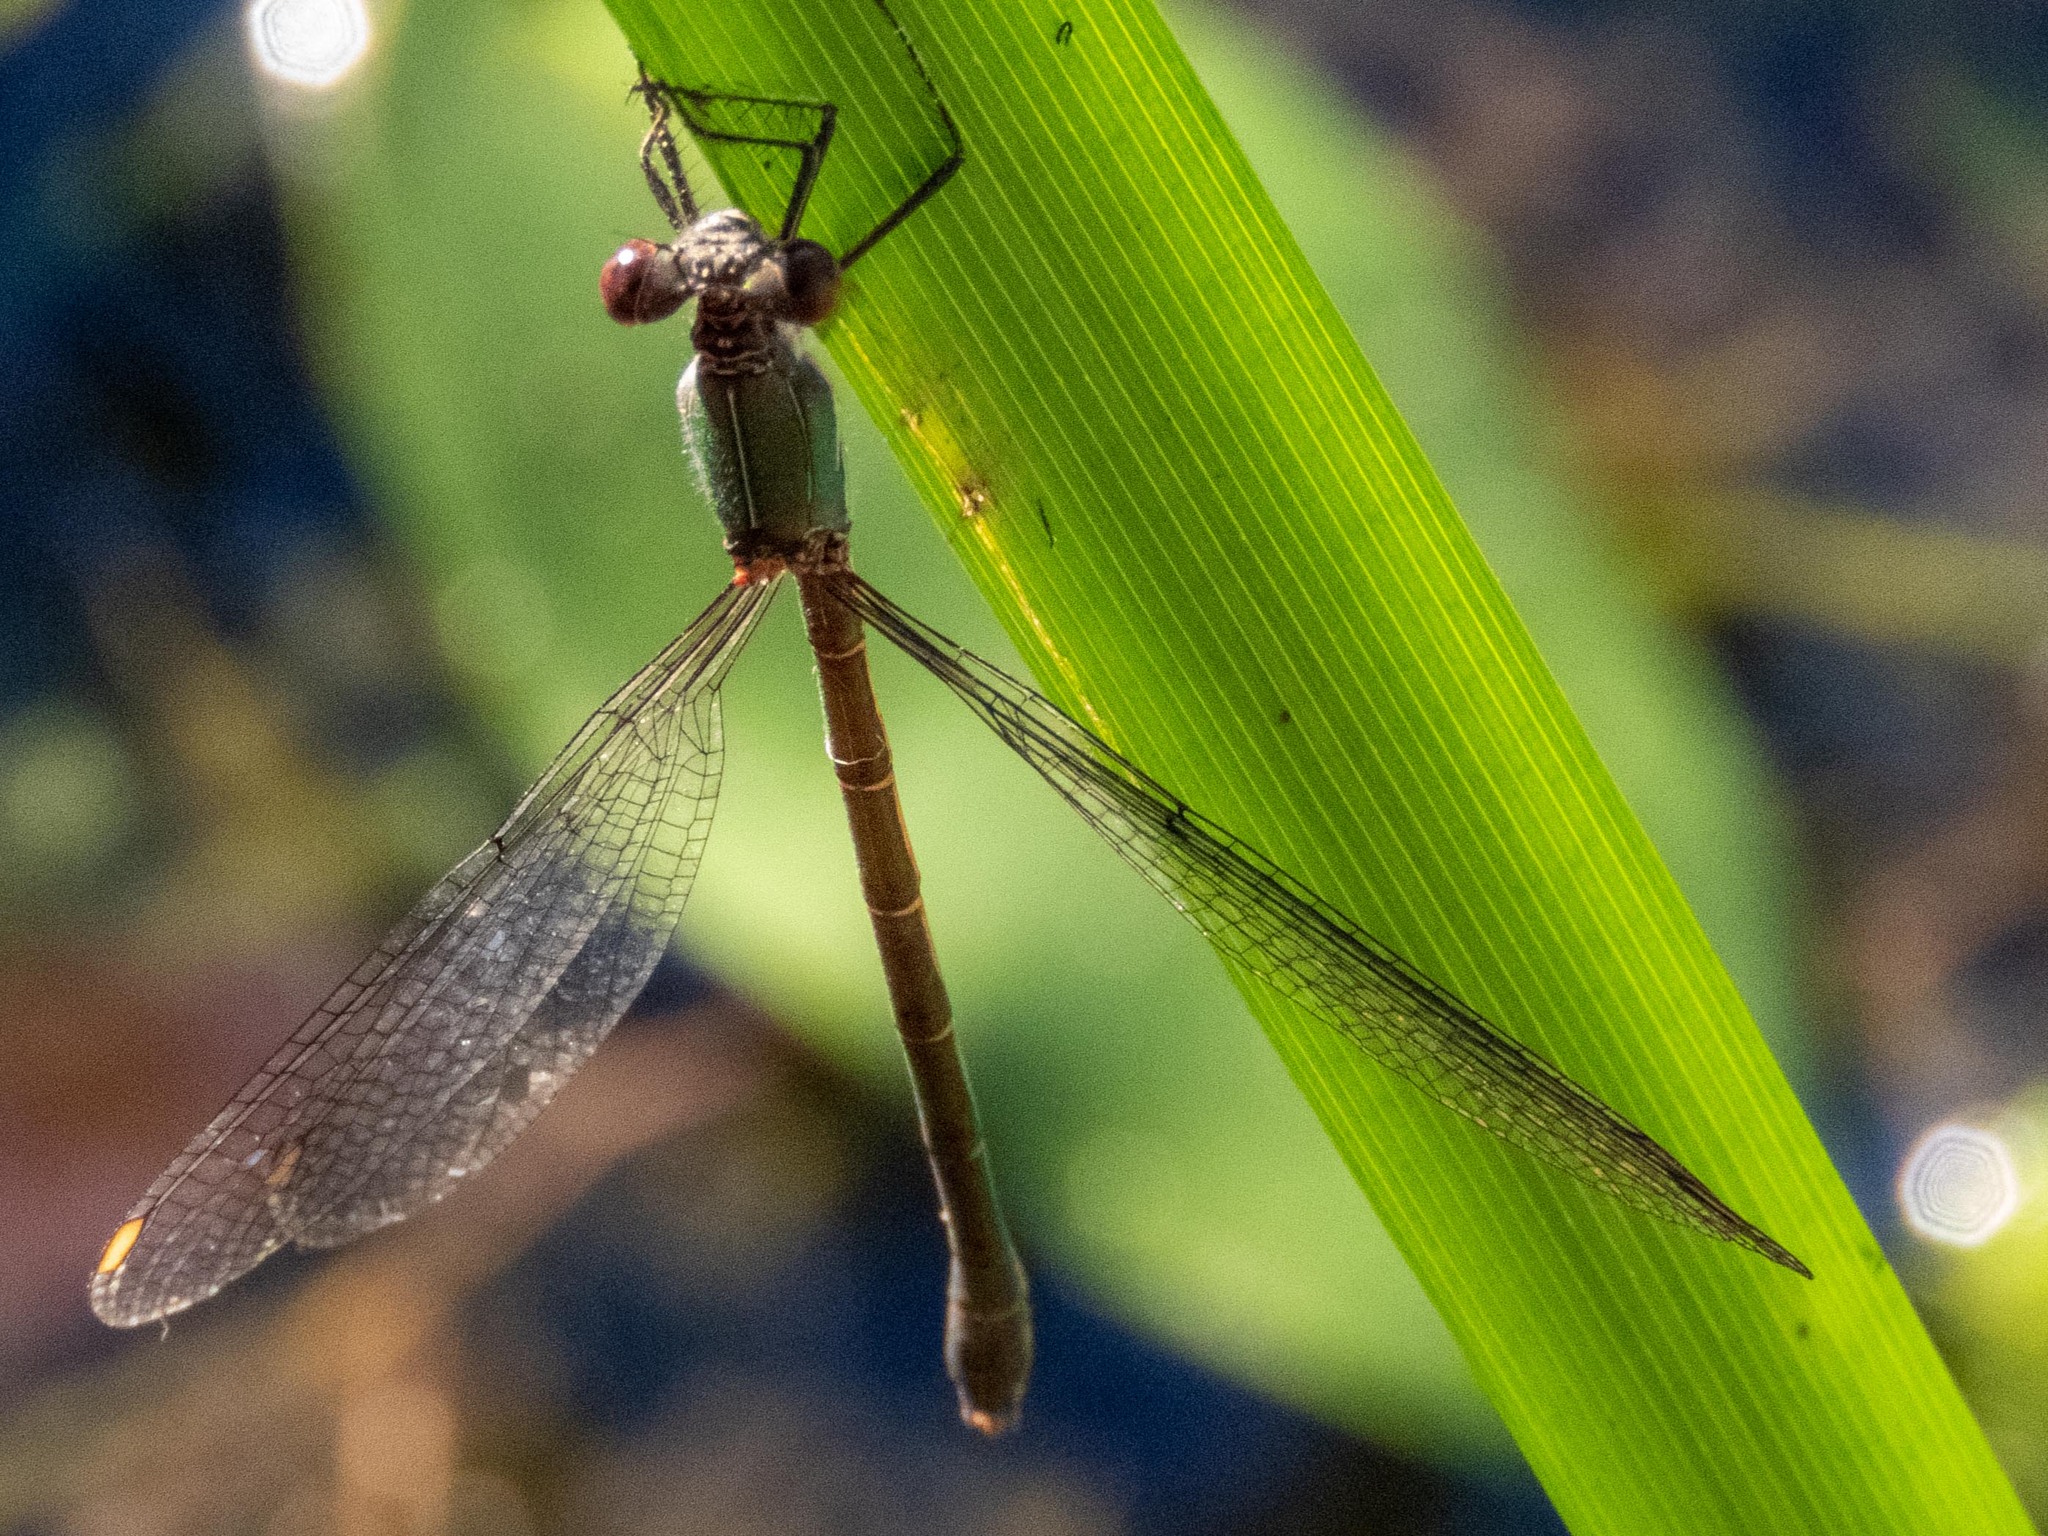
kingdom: Animalia
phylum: Arthropoda
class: Insecta
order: Odonata
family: Lestidae
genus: Chalcolestes
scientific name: Chalcolestes viridis
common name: Green emerald damselfly
